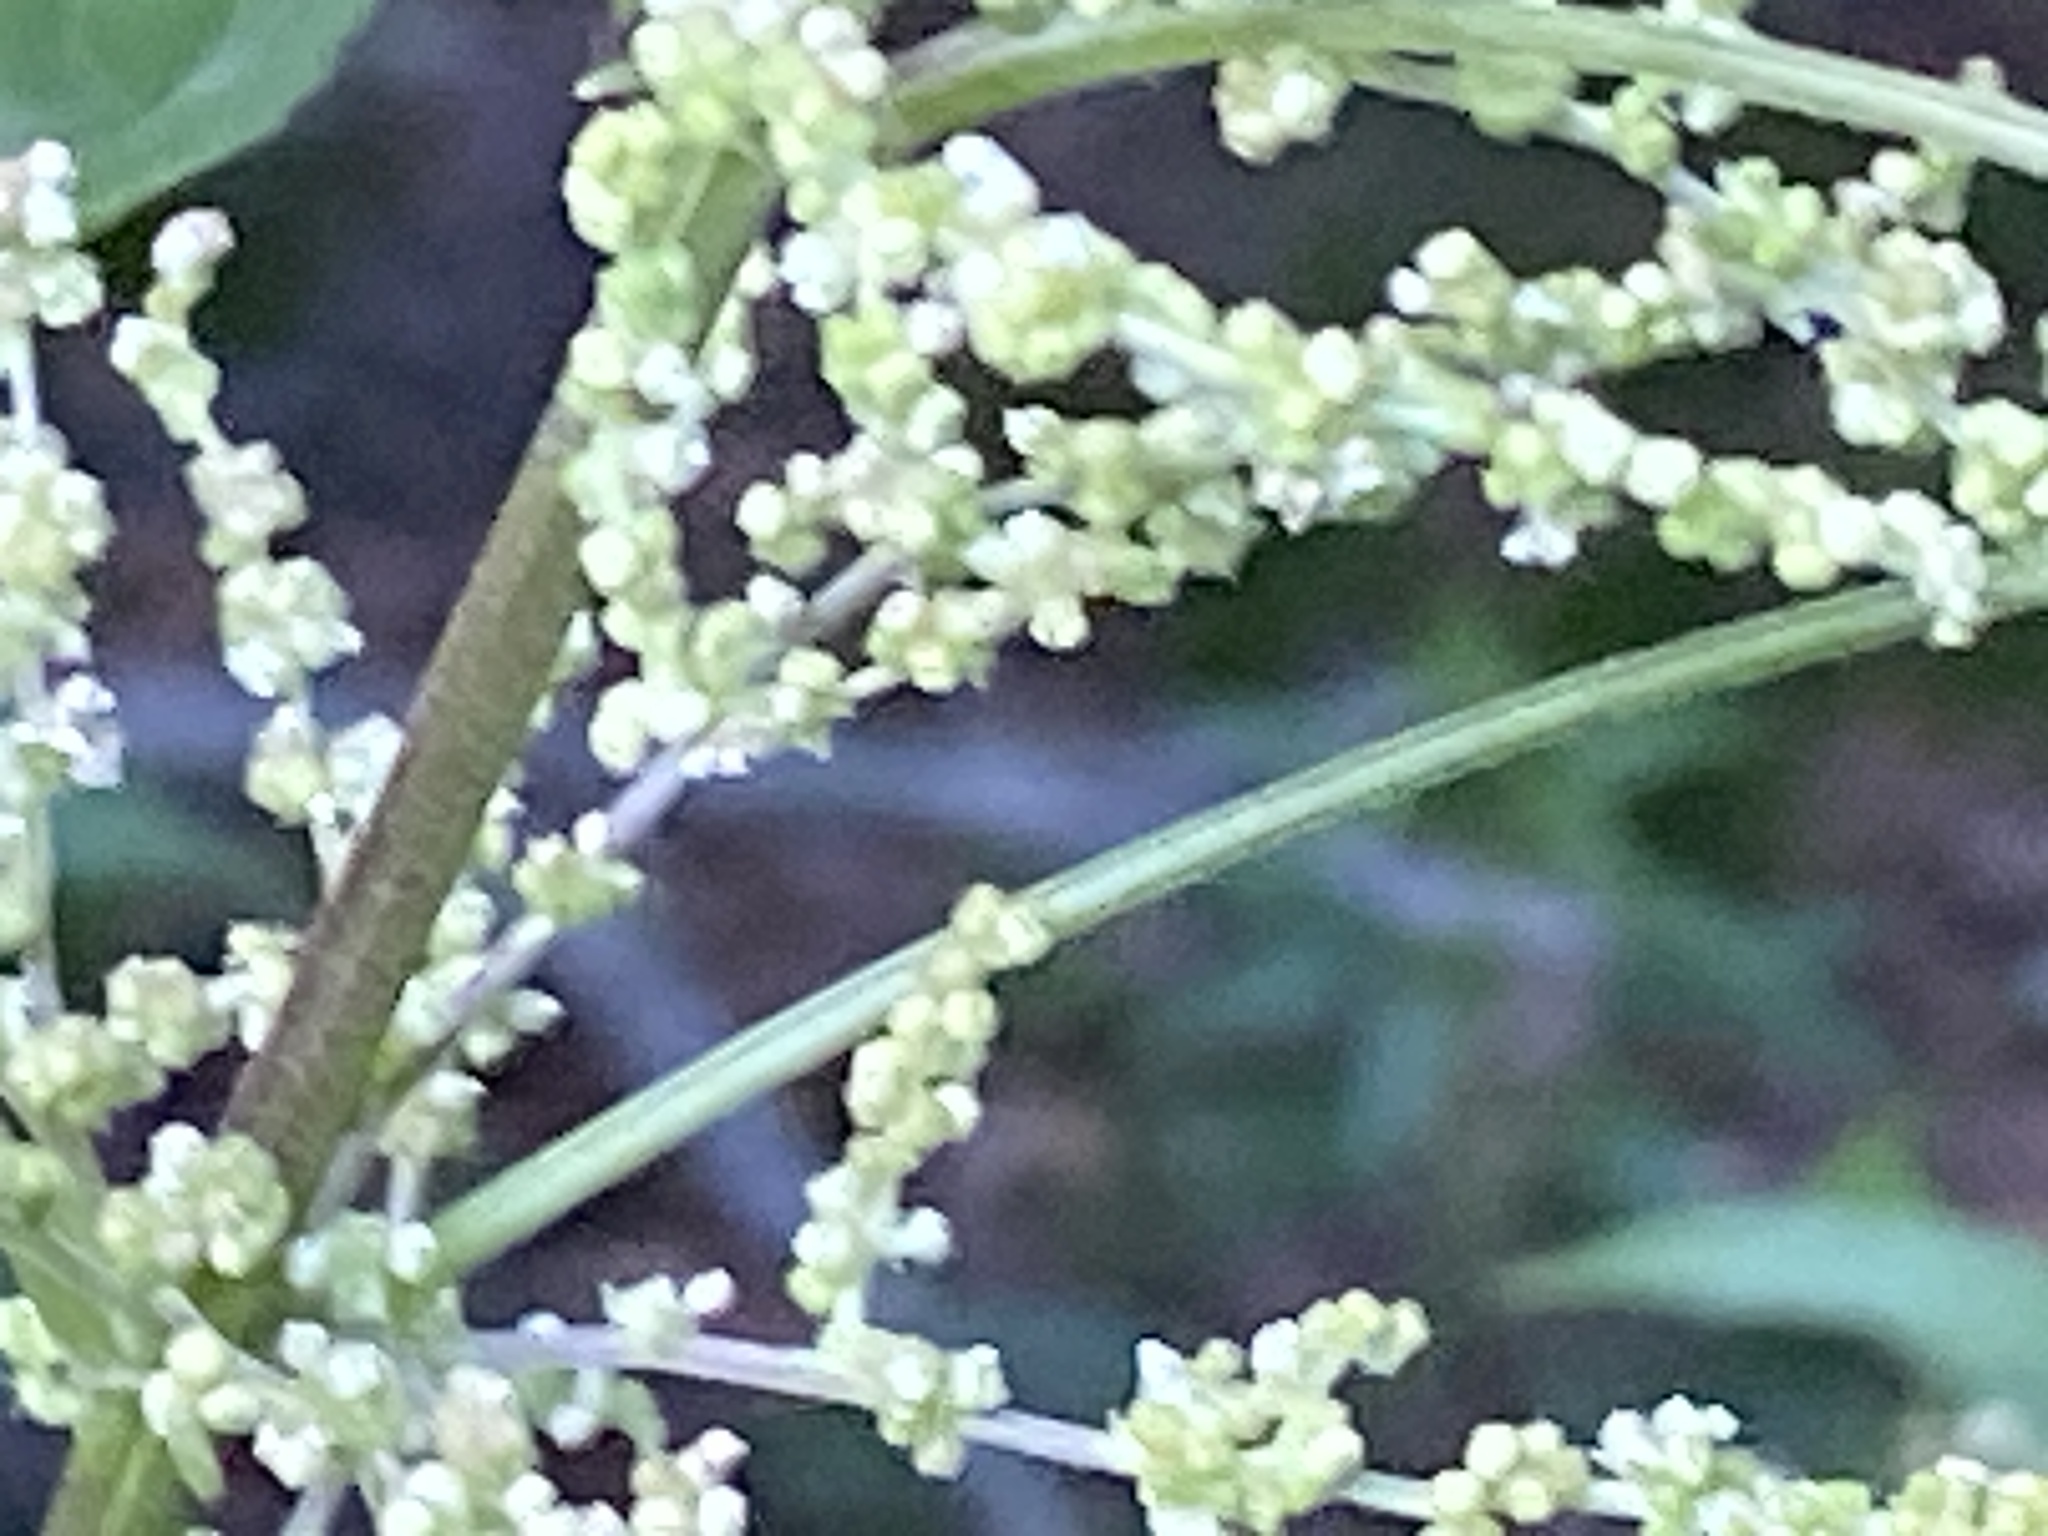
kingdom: Plantae
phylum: Tracheophyta
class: Magnoliopsida
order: Rosales
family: Urticaceae
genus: Urtica
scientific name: Urtica dioica
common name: Common nettle
